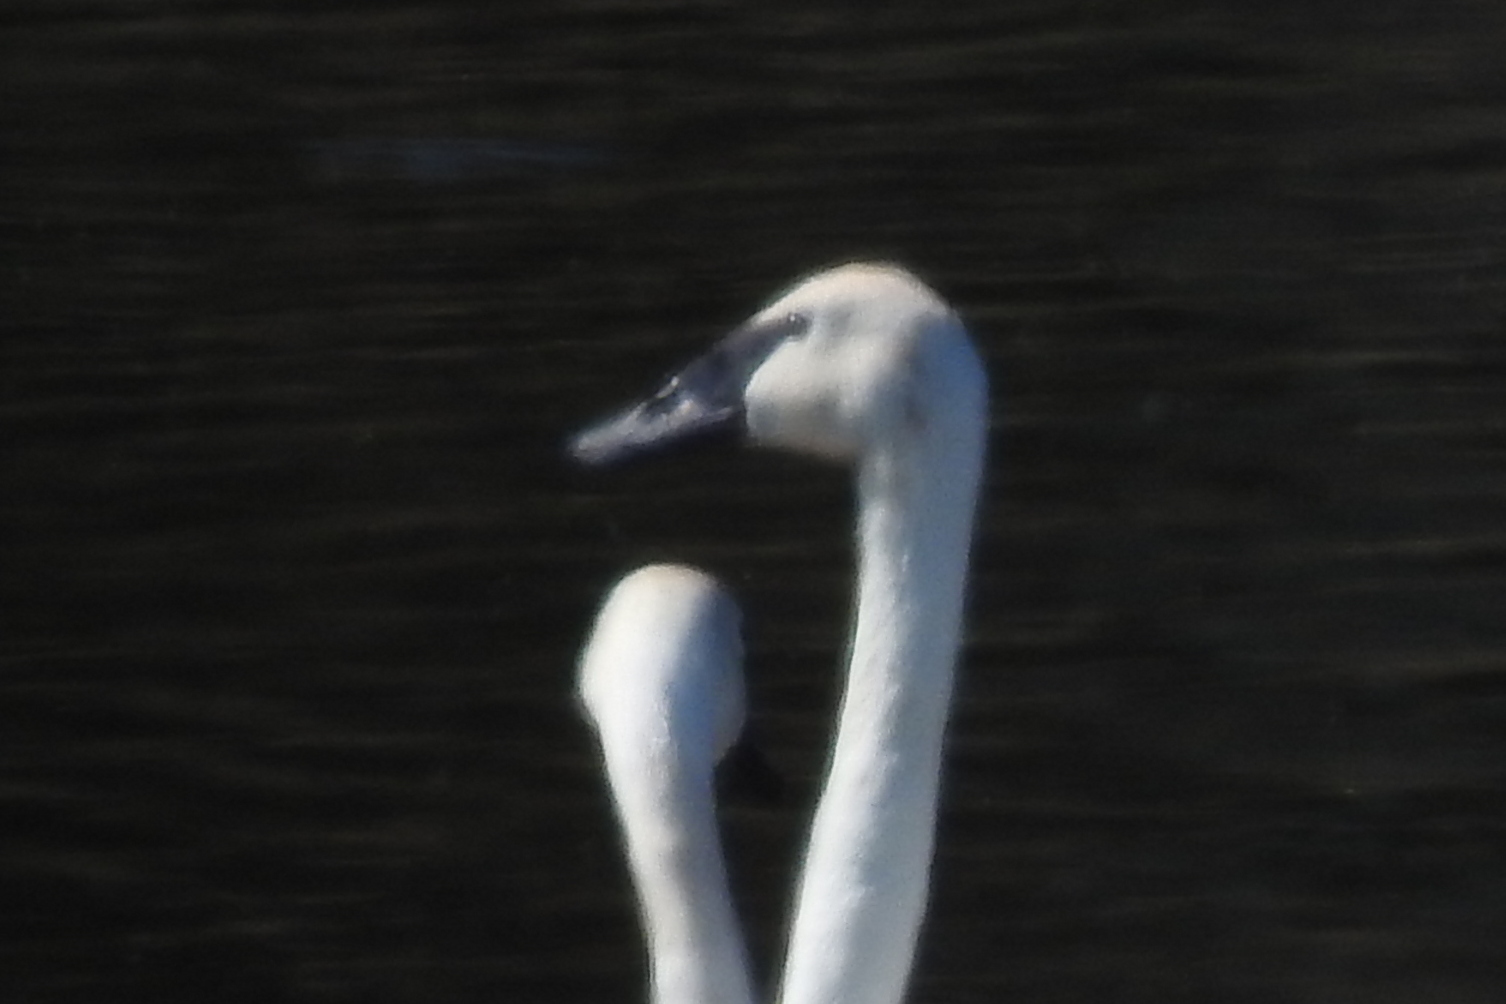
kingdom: Animalia
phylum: Chordata
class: Aves
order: Anseriformes
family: Anatidae
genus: Cygnus
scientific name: Cygnus buccinator
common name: Trumpeter swan
